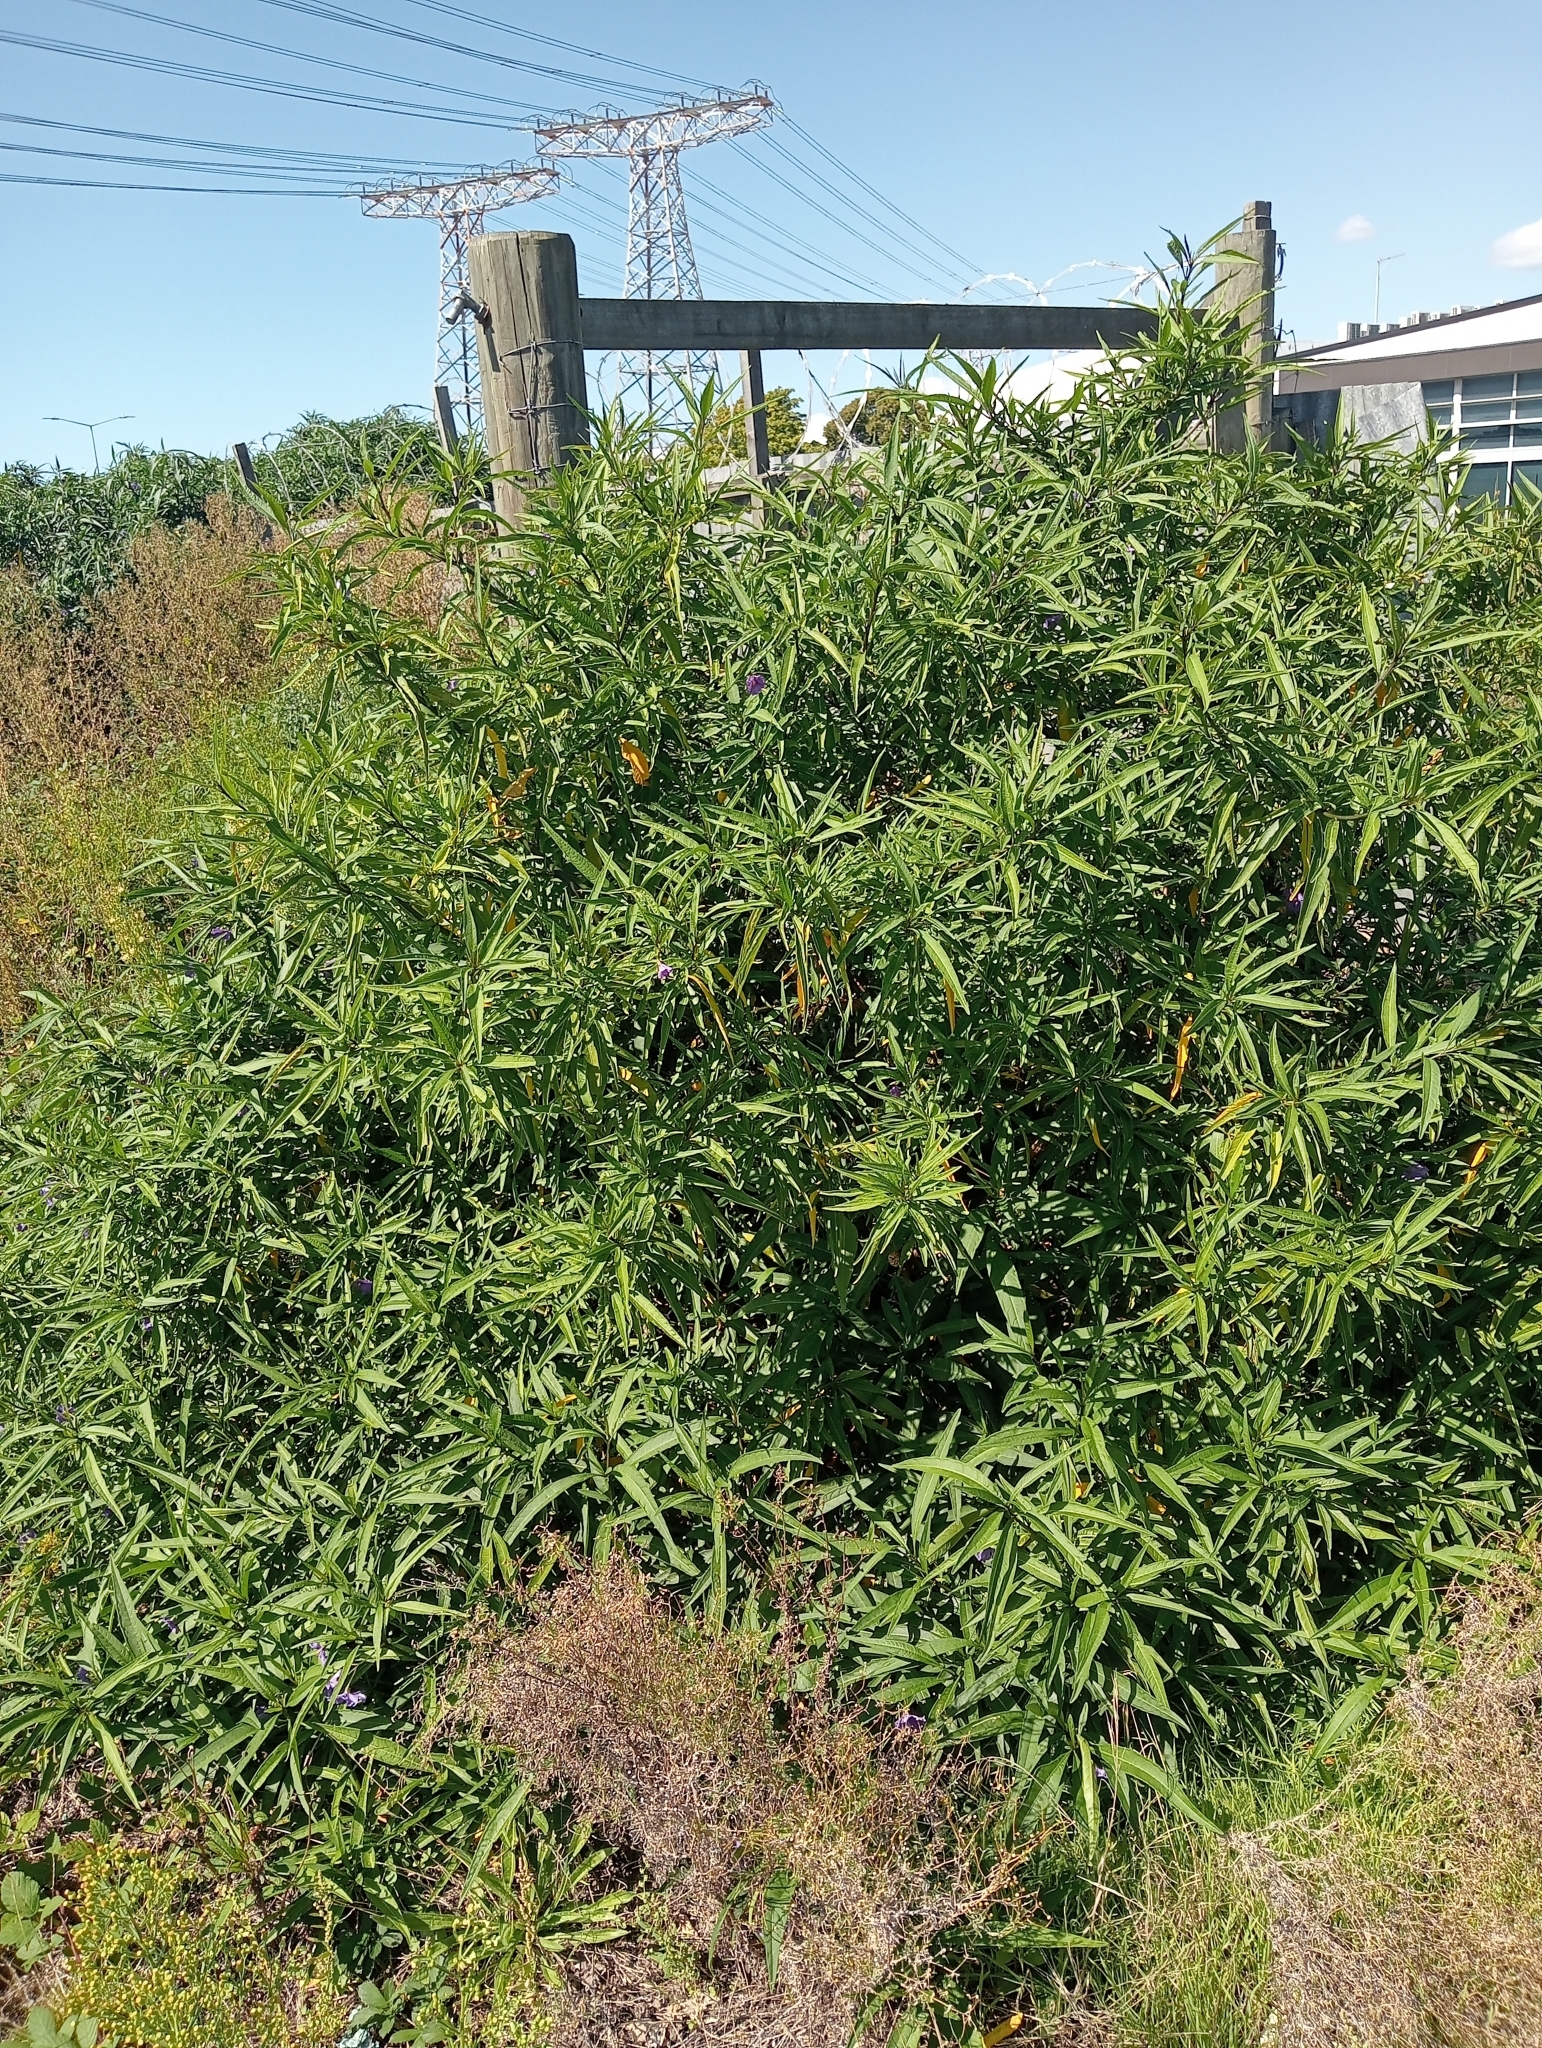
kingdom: Plantae
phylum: Tracheophyta
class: Magnoliopsida
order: Solanales
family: Solanaceae
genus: Solanum
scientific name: Solanum laciniatum
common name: Kangaroo-apple
